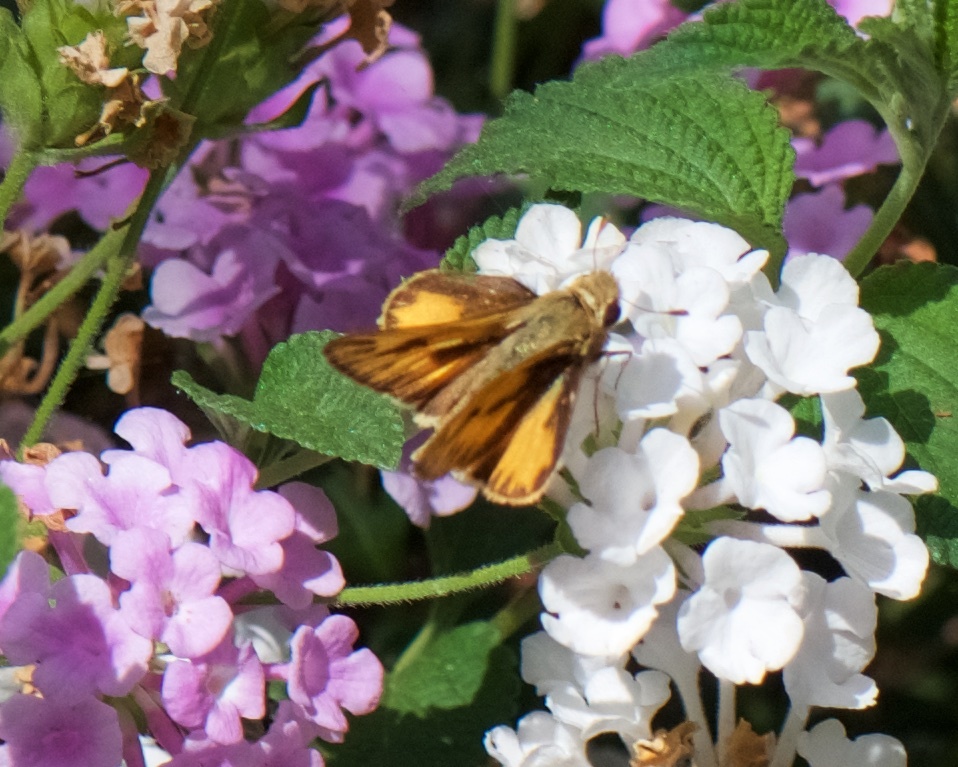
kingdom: Animalia
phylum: Arthropoda
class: Insecta
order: Lepidoptera
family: Hesperiidae
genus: Hylephila
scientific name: Hylephila phyleus
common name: Fiery skipper
